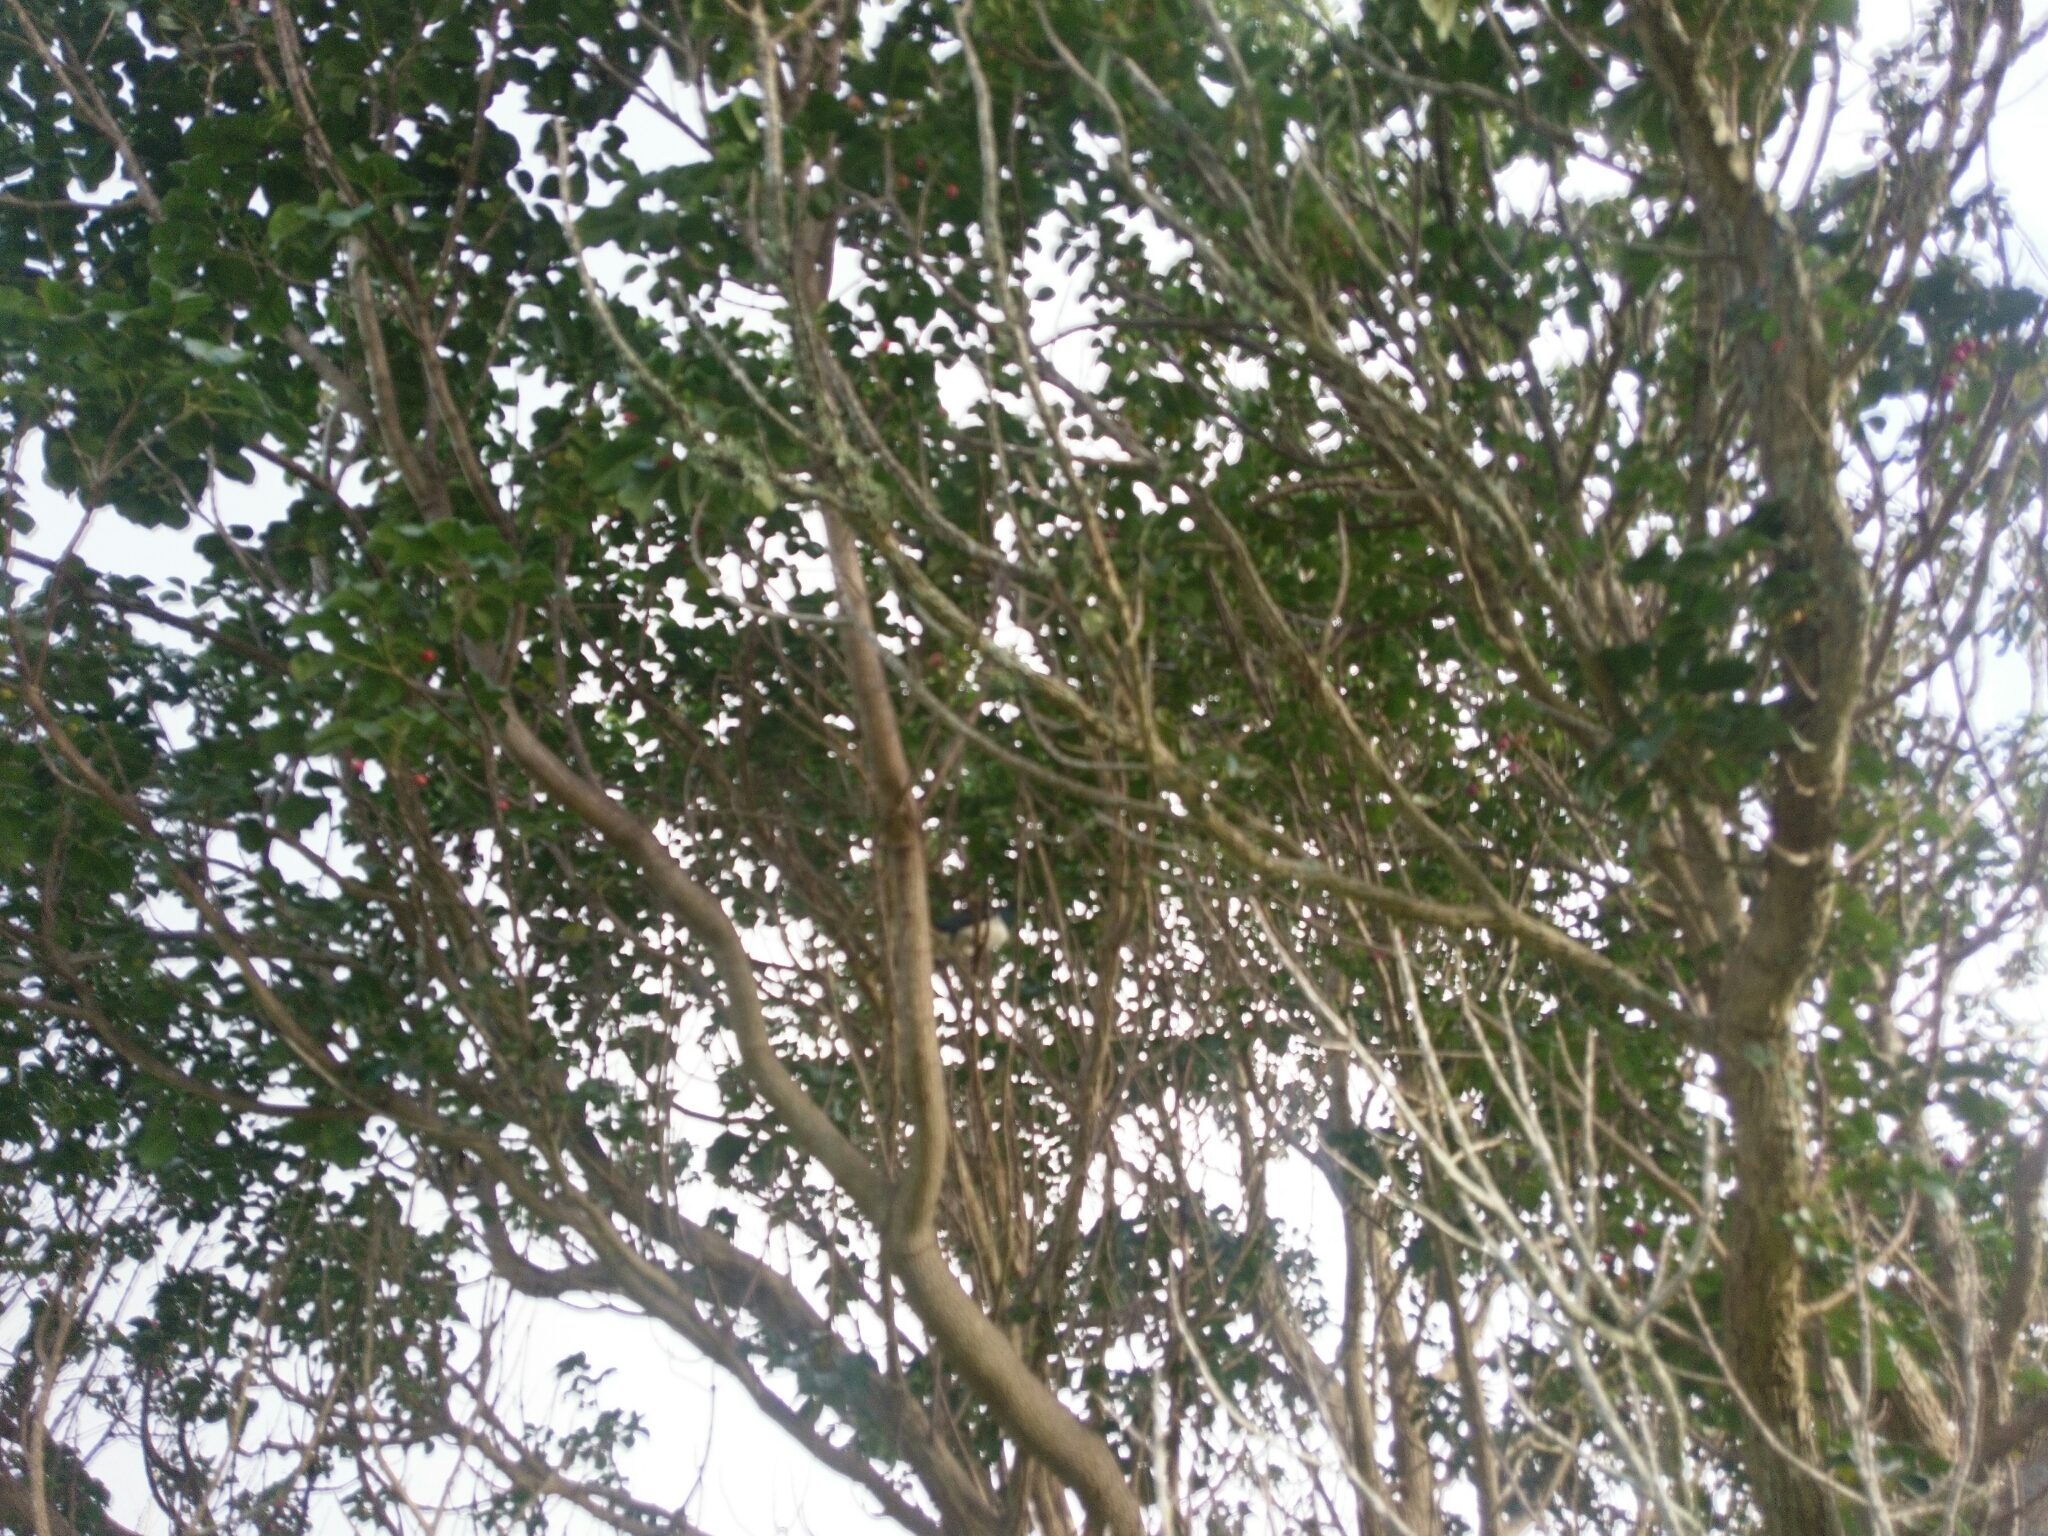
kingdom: Animalia
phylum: Chordata
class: Aves
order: Columbiformes
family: Columbidae
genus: Hemiphaga
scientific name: Hemiphaga novaeseelandiae
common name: New zealand pigeon
